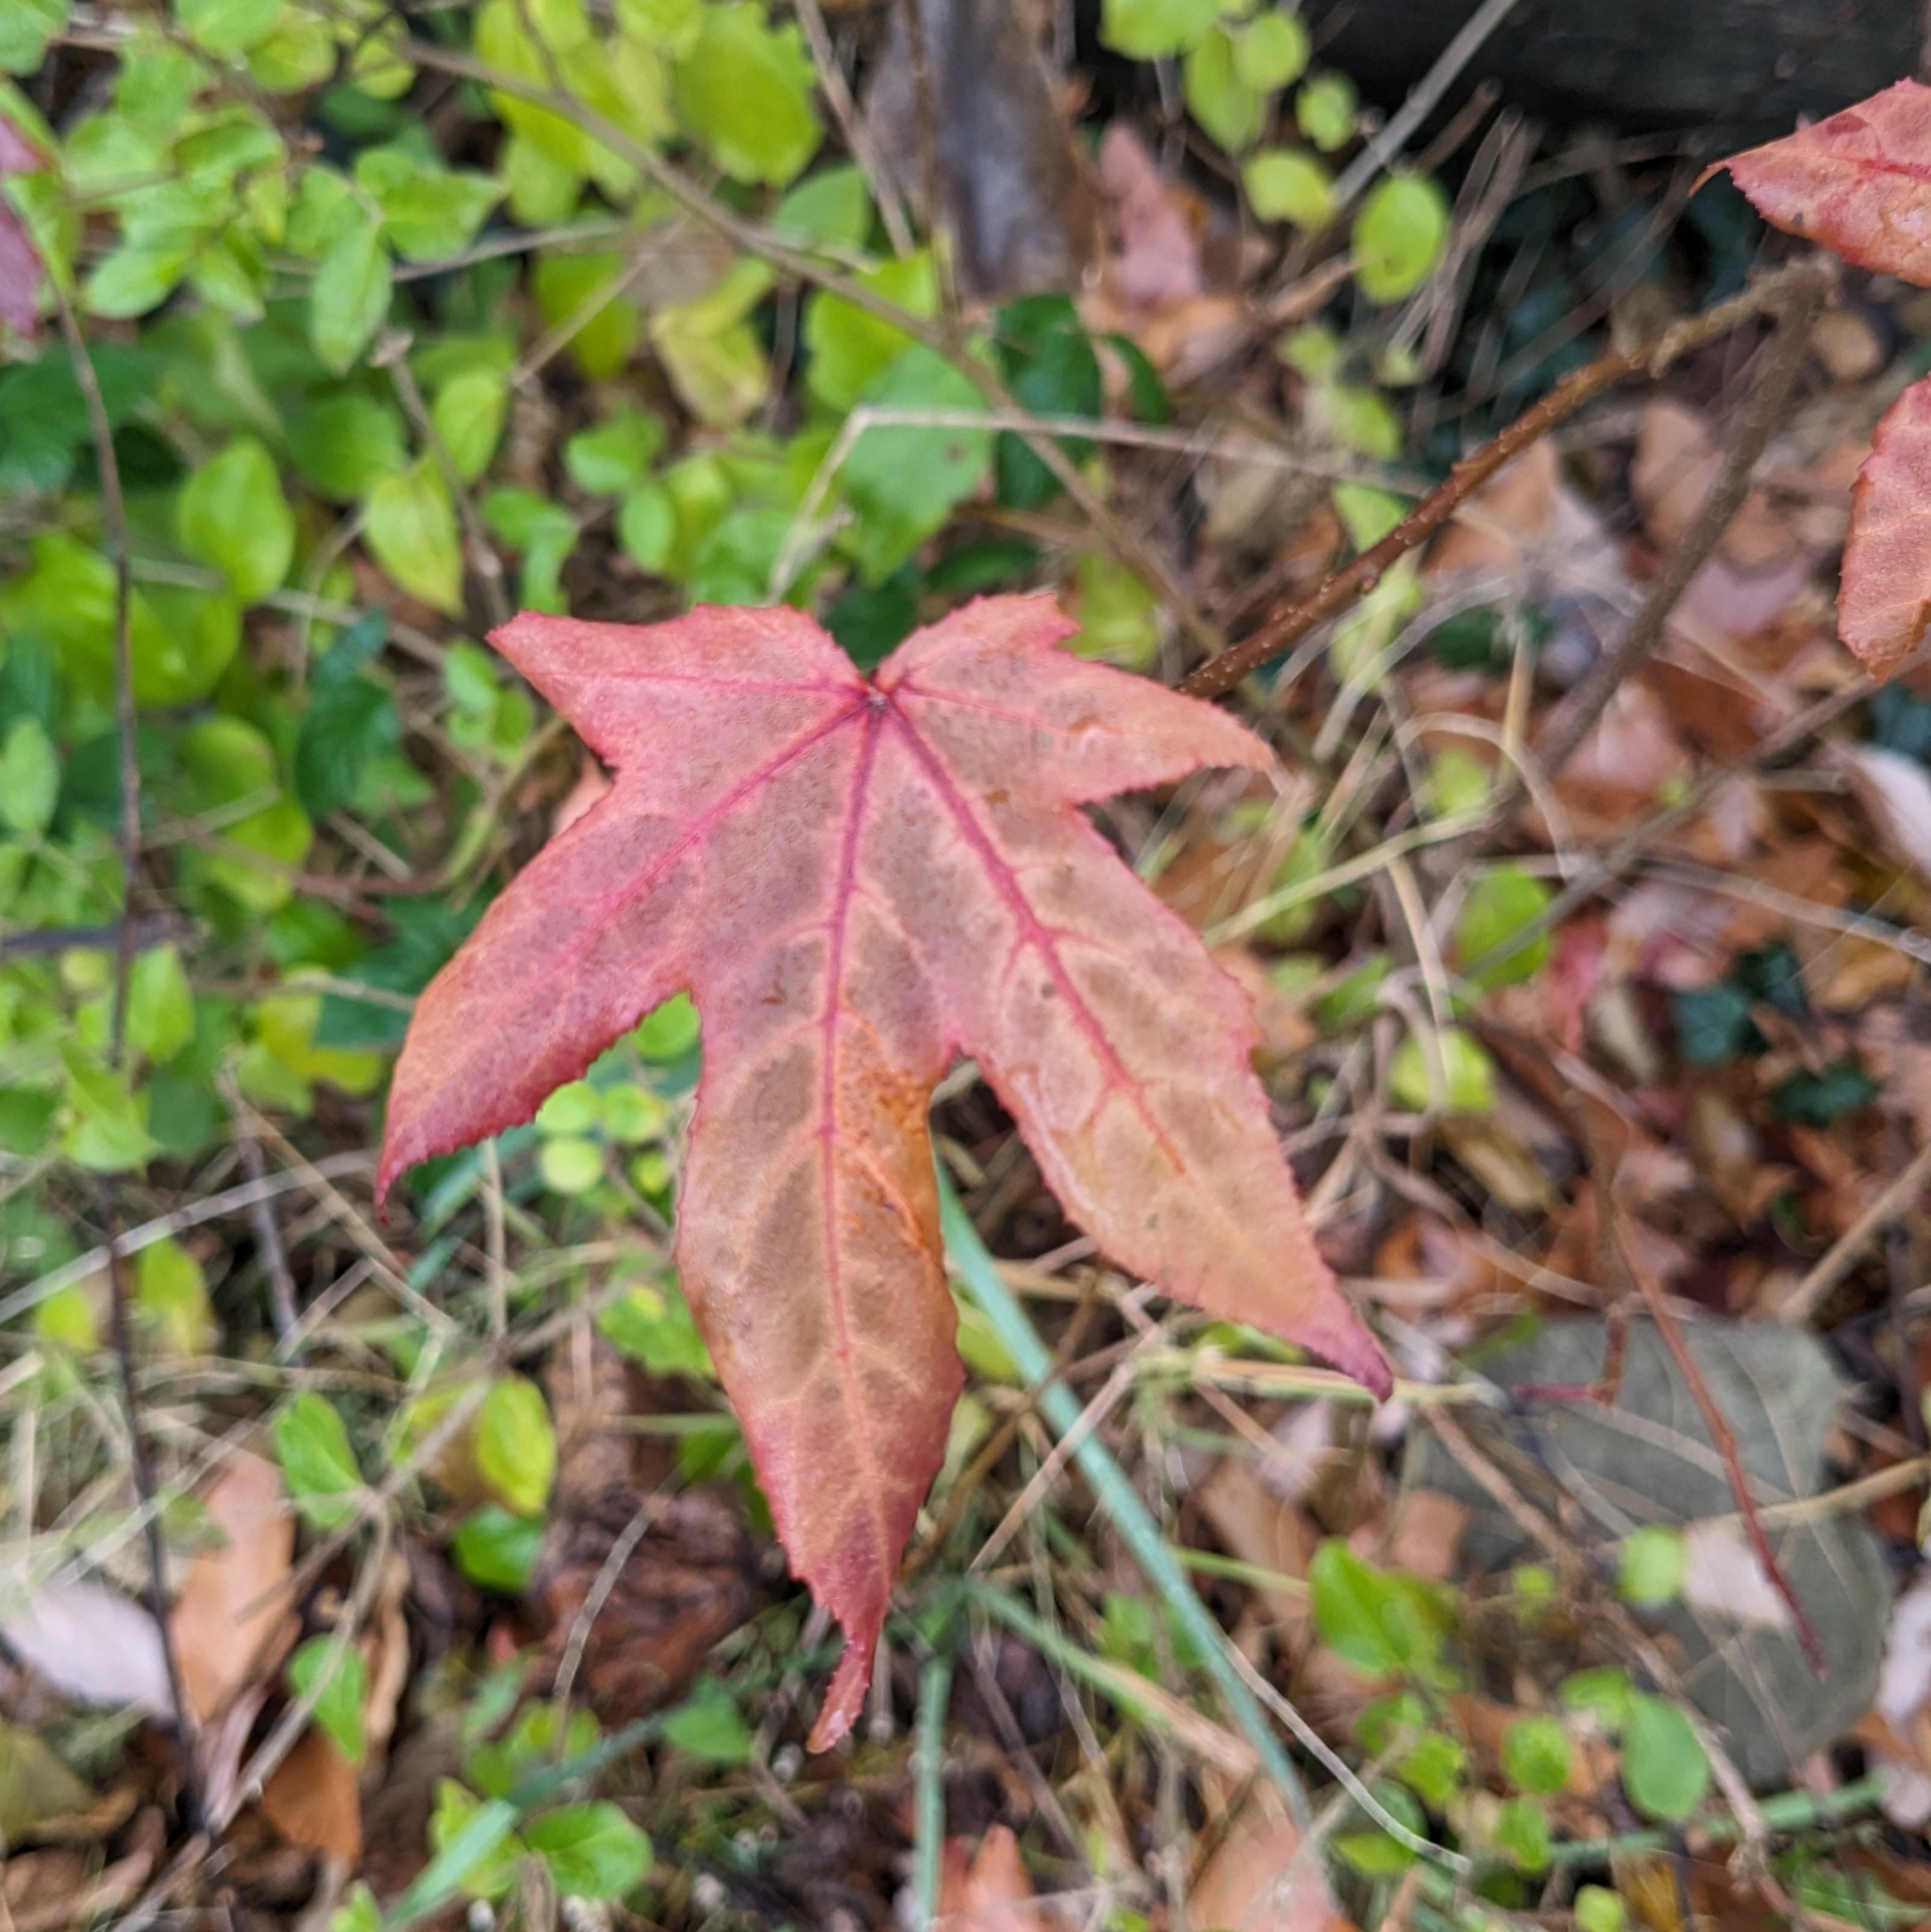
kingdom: Plantae
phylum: Tracheophyta
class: Magnoliopsida
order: Saxifragales
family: Altingiaceae
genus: Liquidambar
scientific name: Liquidambar styraciflua
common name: Sweet gum
